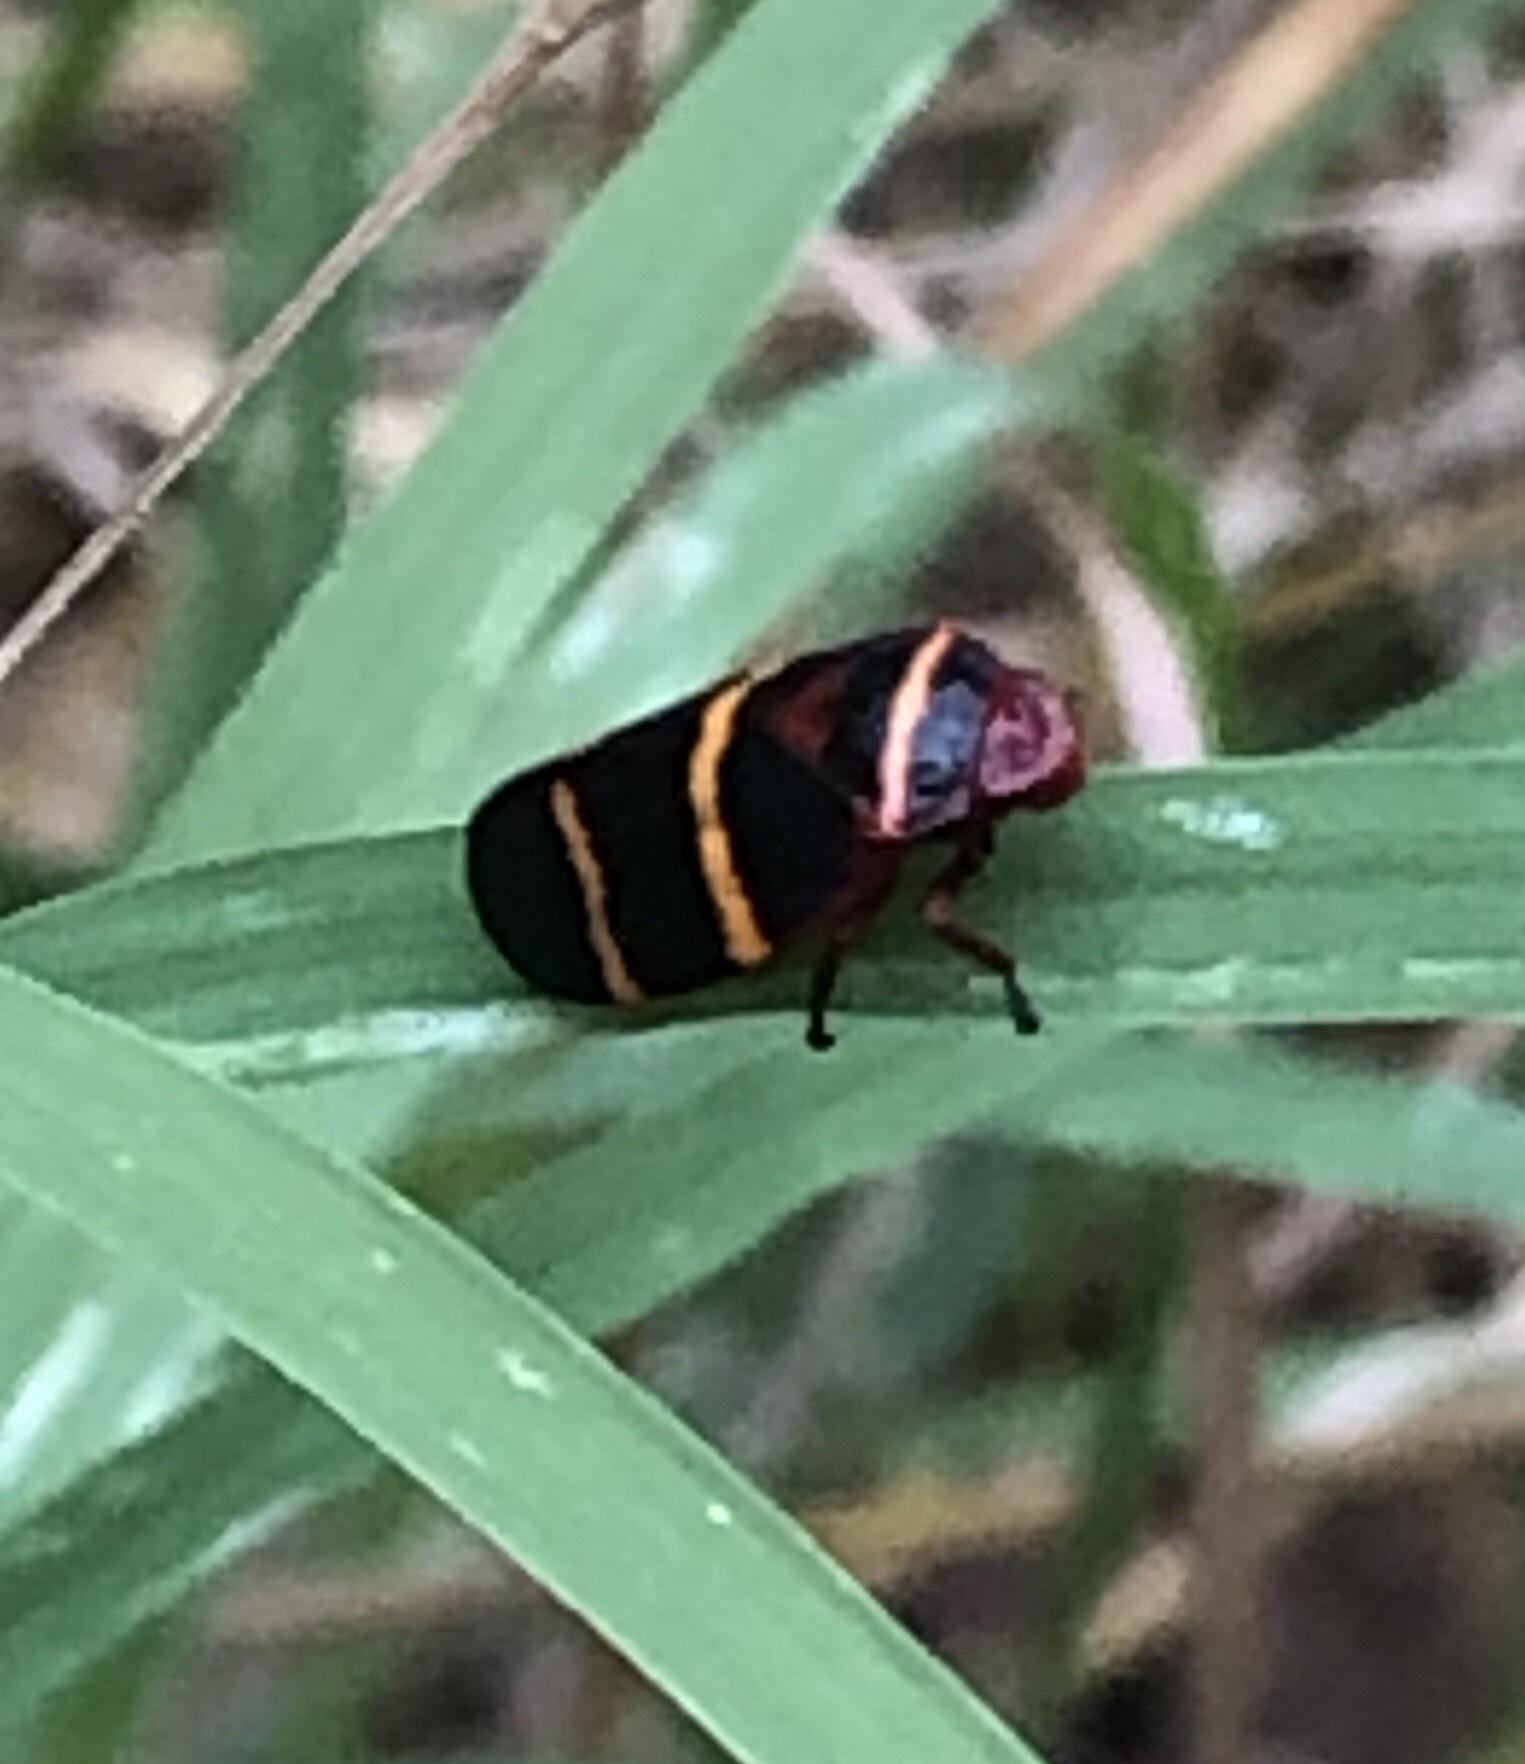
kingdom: Animalia
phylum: Arthropoda
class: Insecta
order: Hemiptera
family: Cercopidae
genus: Prosapia
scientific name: Prosapia bicincta
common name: Twolined spittlebug
